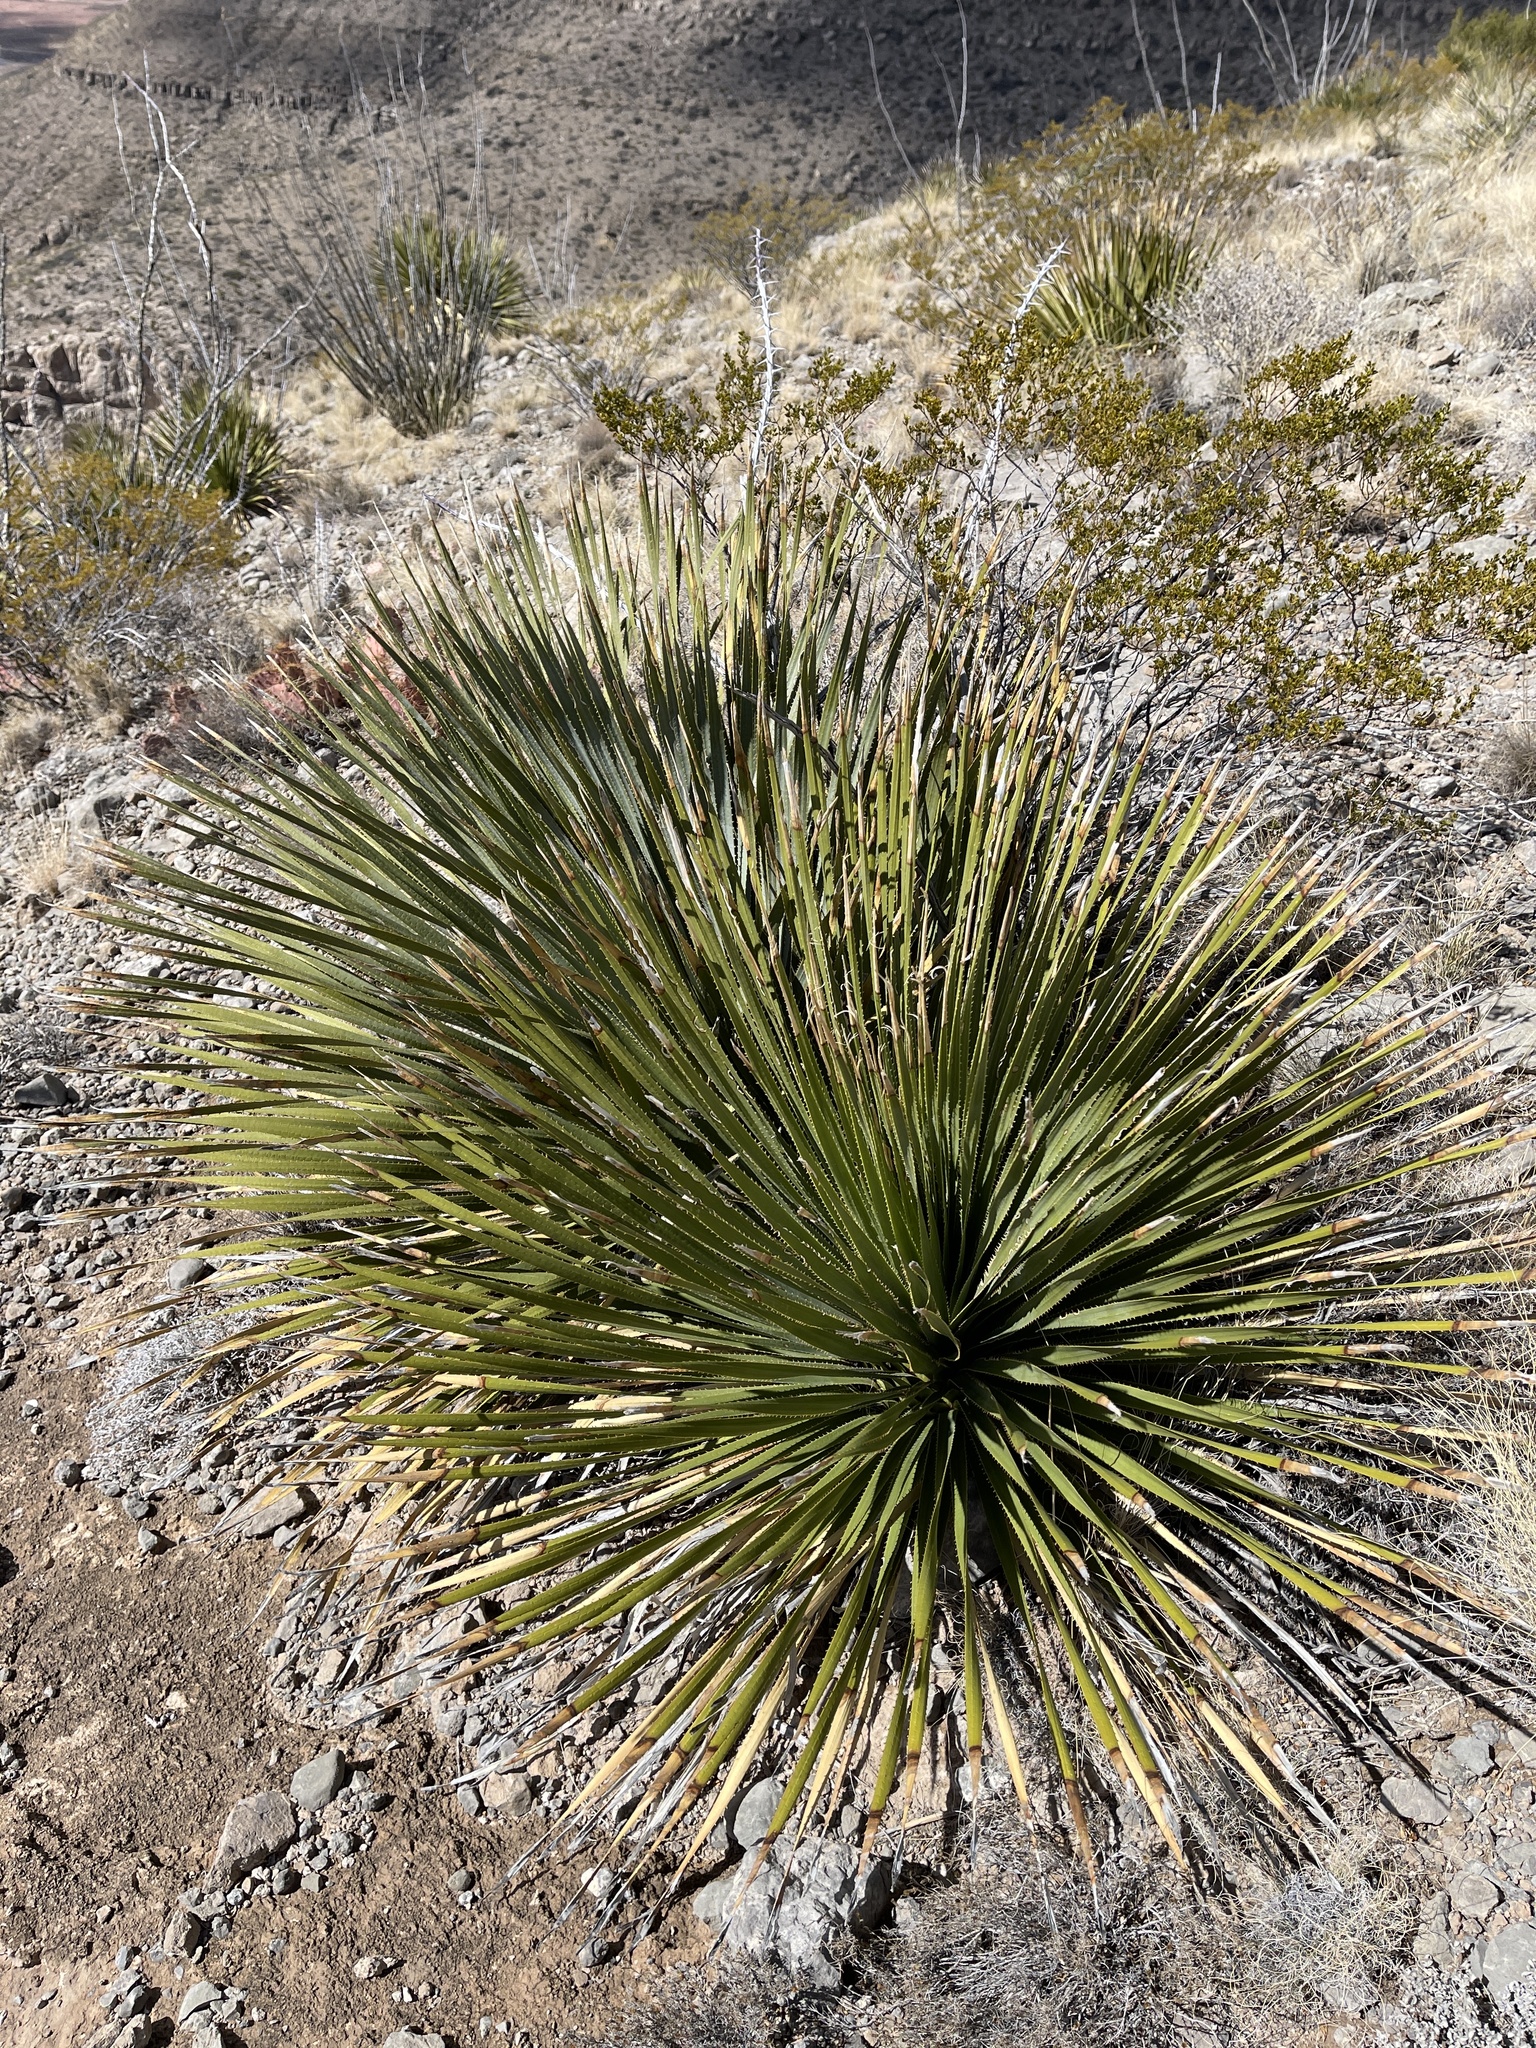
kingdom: Plantae
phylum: Tracheophyta
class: Liliopsida
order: Asparagales
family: Asparagaceae
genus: Dasylirion
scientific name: Dasylirion wheeleri
